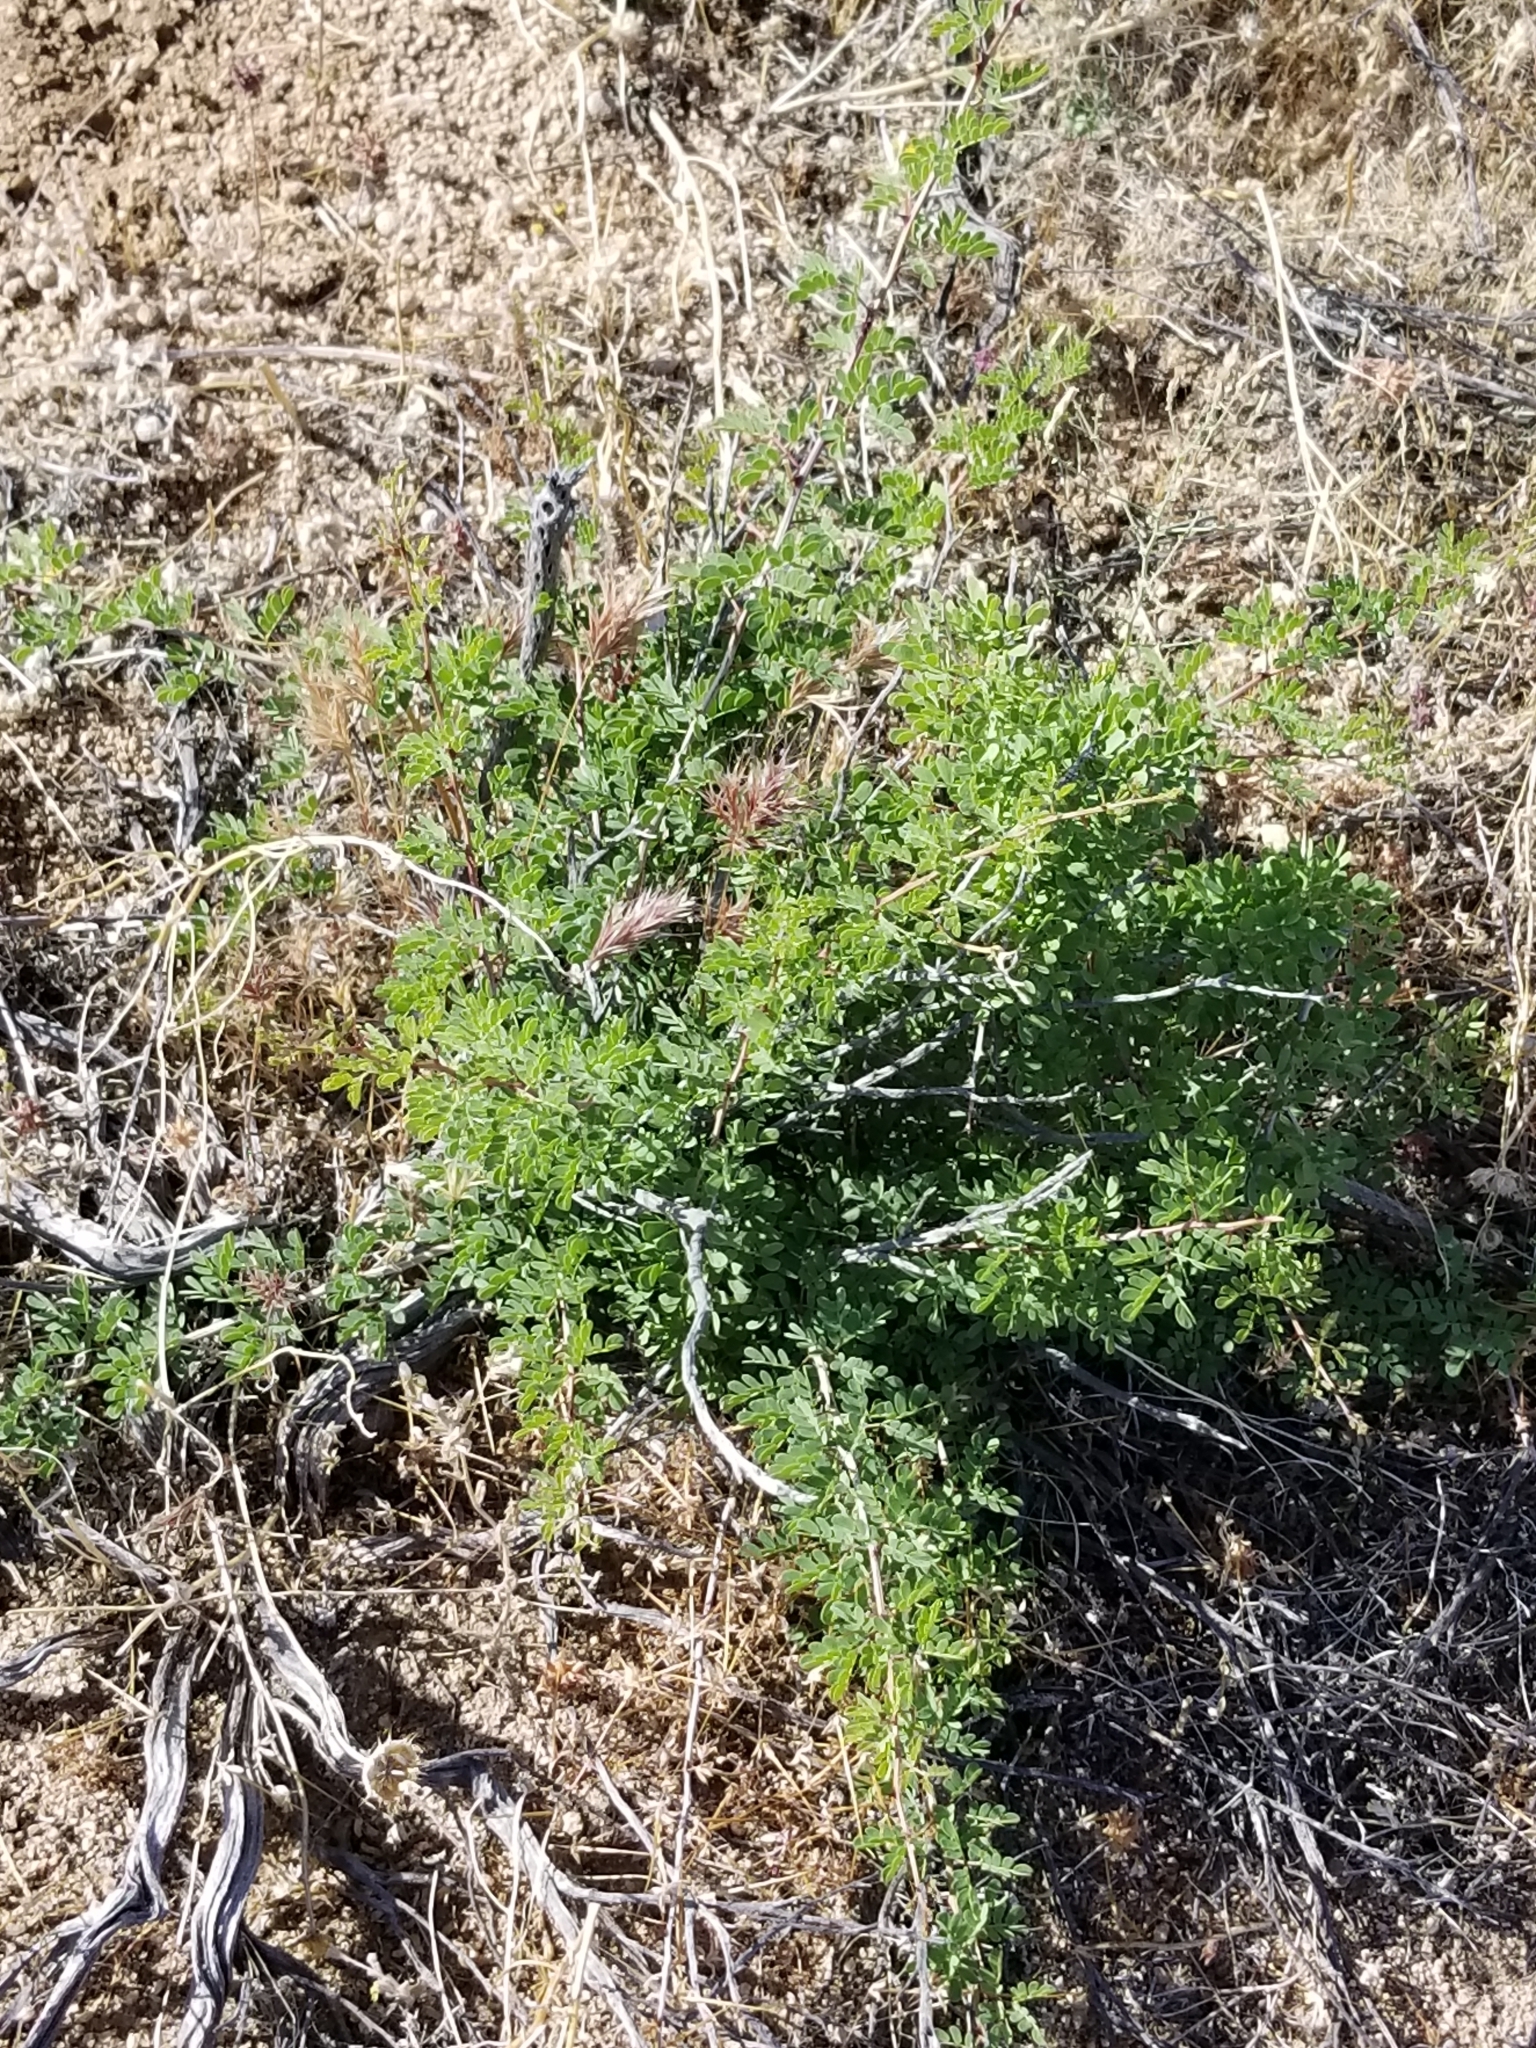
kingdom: Plantae
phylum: Tracheophyta
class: Magnoliopsida
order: Fabales
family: Fabaceae
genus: Senegalia
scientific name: Senegalia greggii
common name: Texas-mimosa
